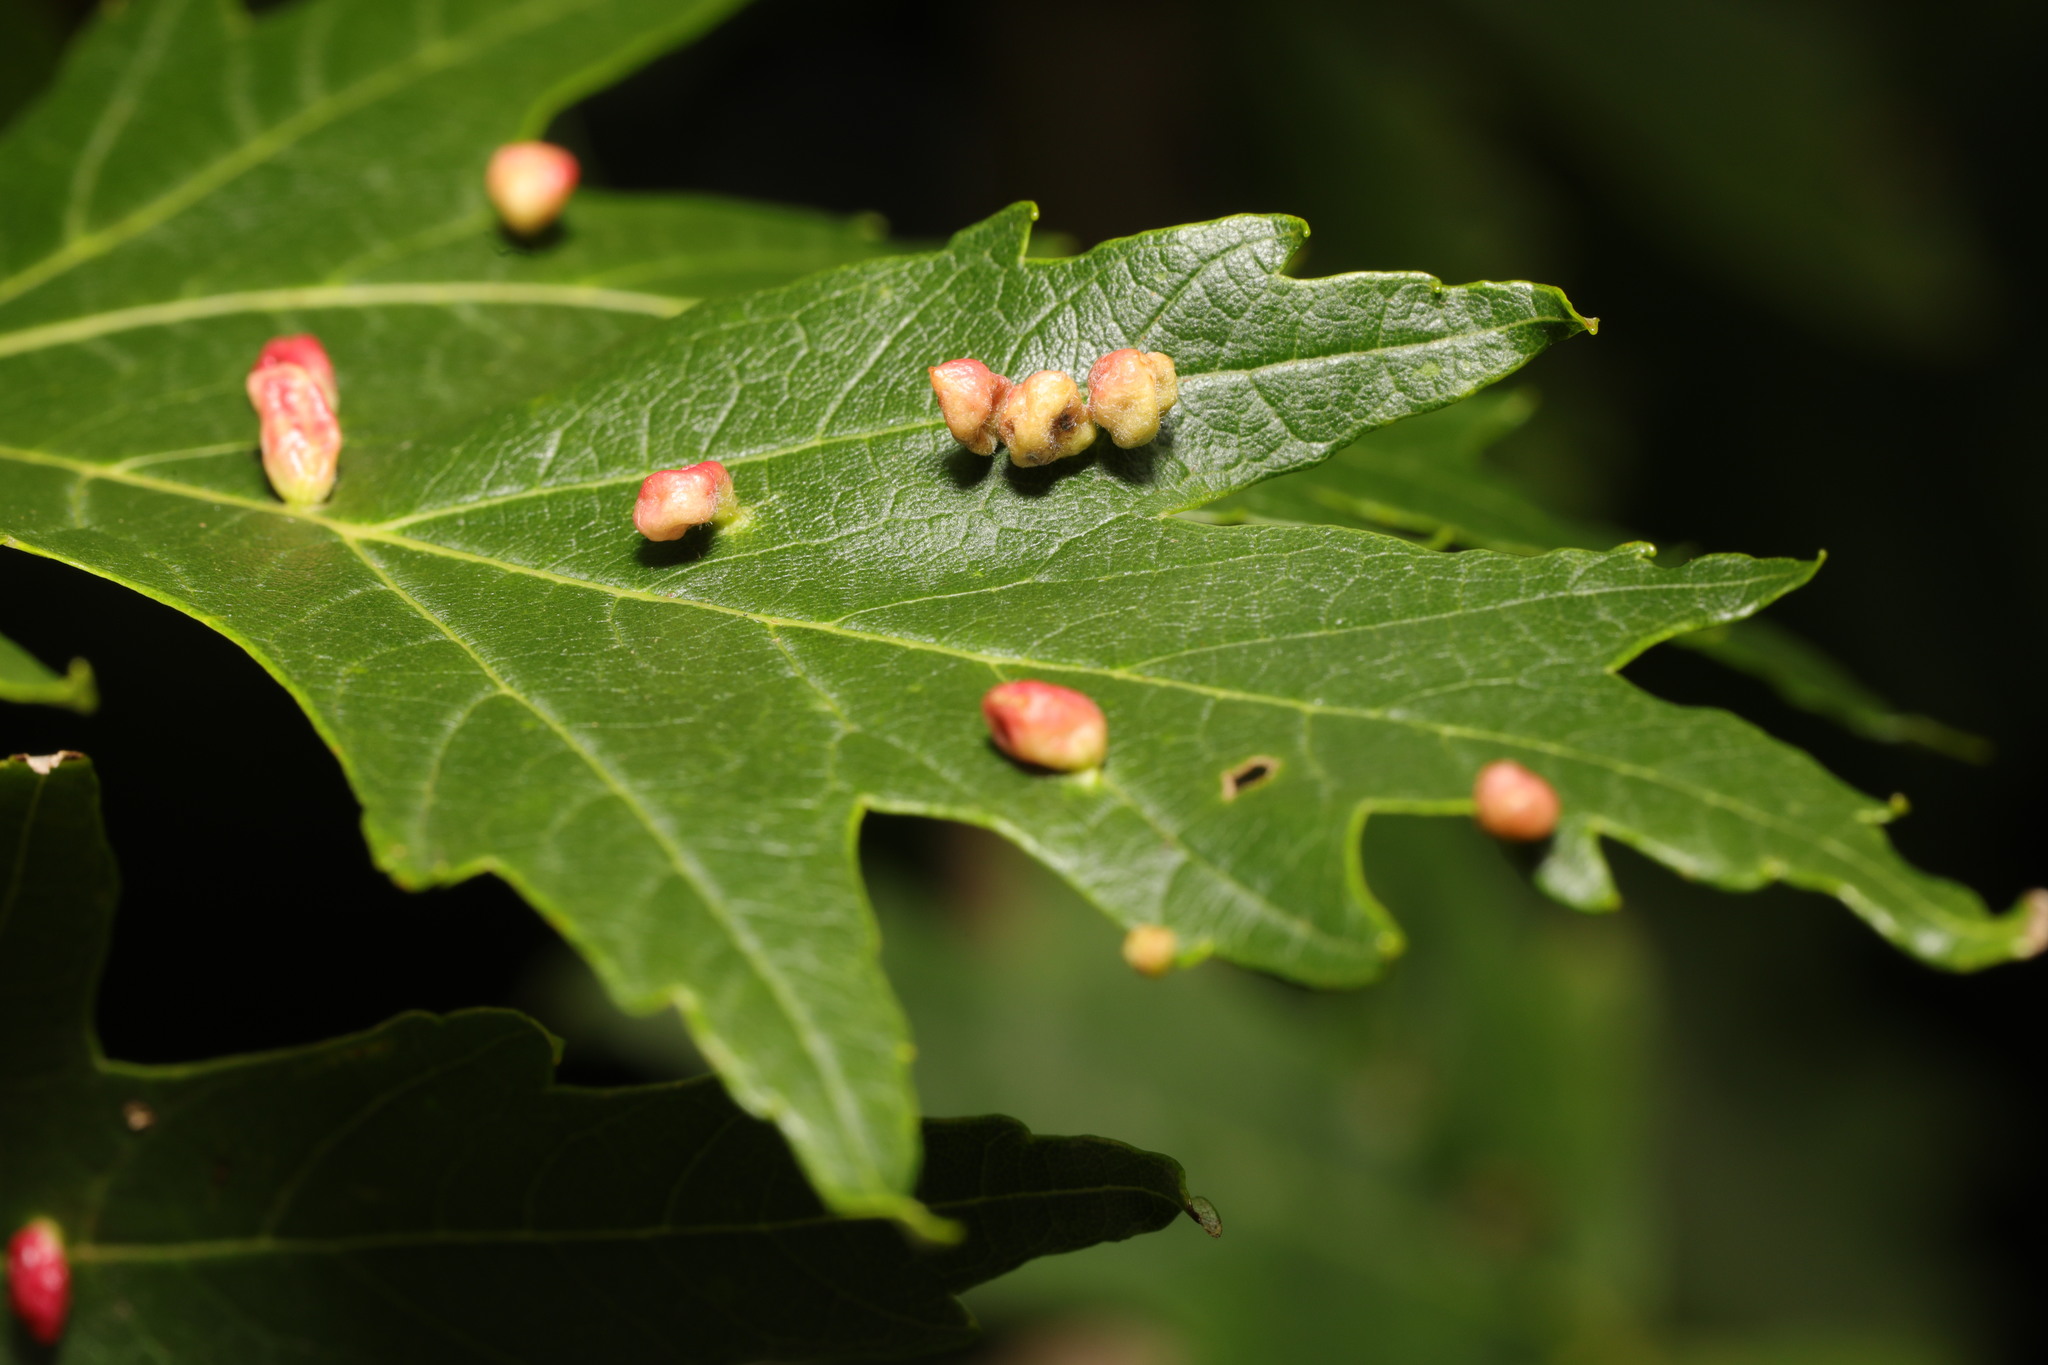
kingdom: Animalia
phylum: Arthropoda
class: Arachnida
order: Trombidiformes
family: Eriophyidae
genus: Vasates
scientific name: Vasates quadripedes
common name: Maple bladder gall mite
